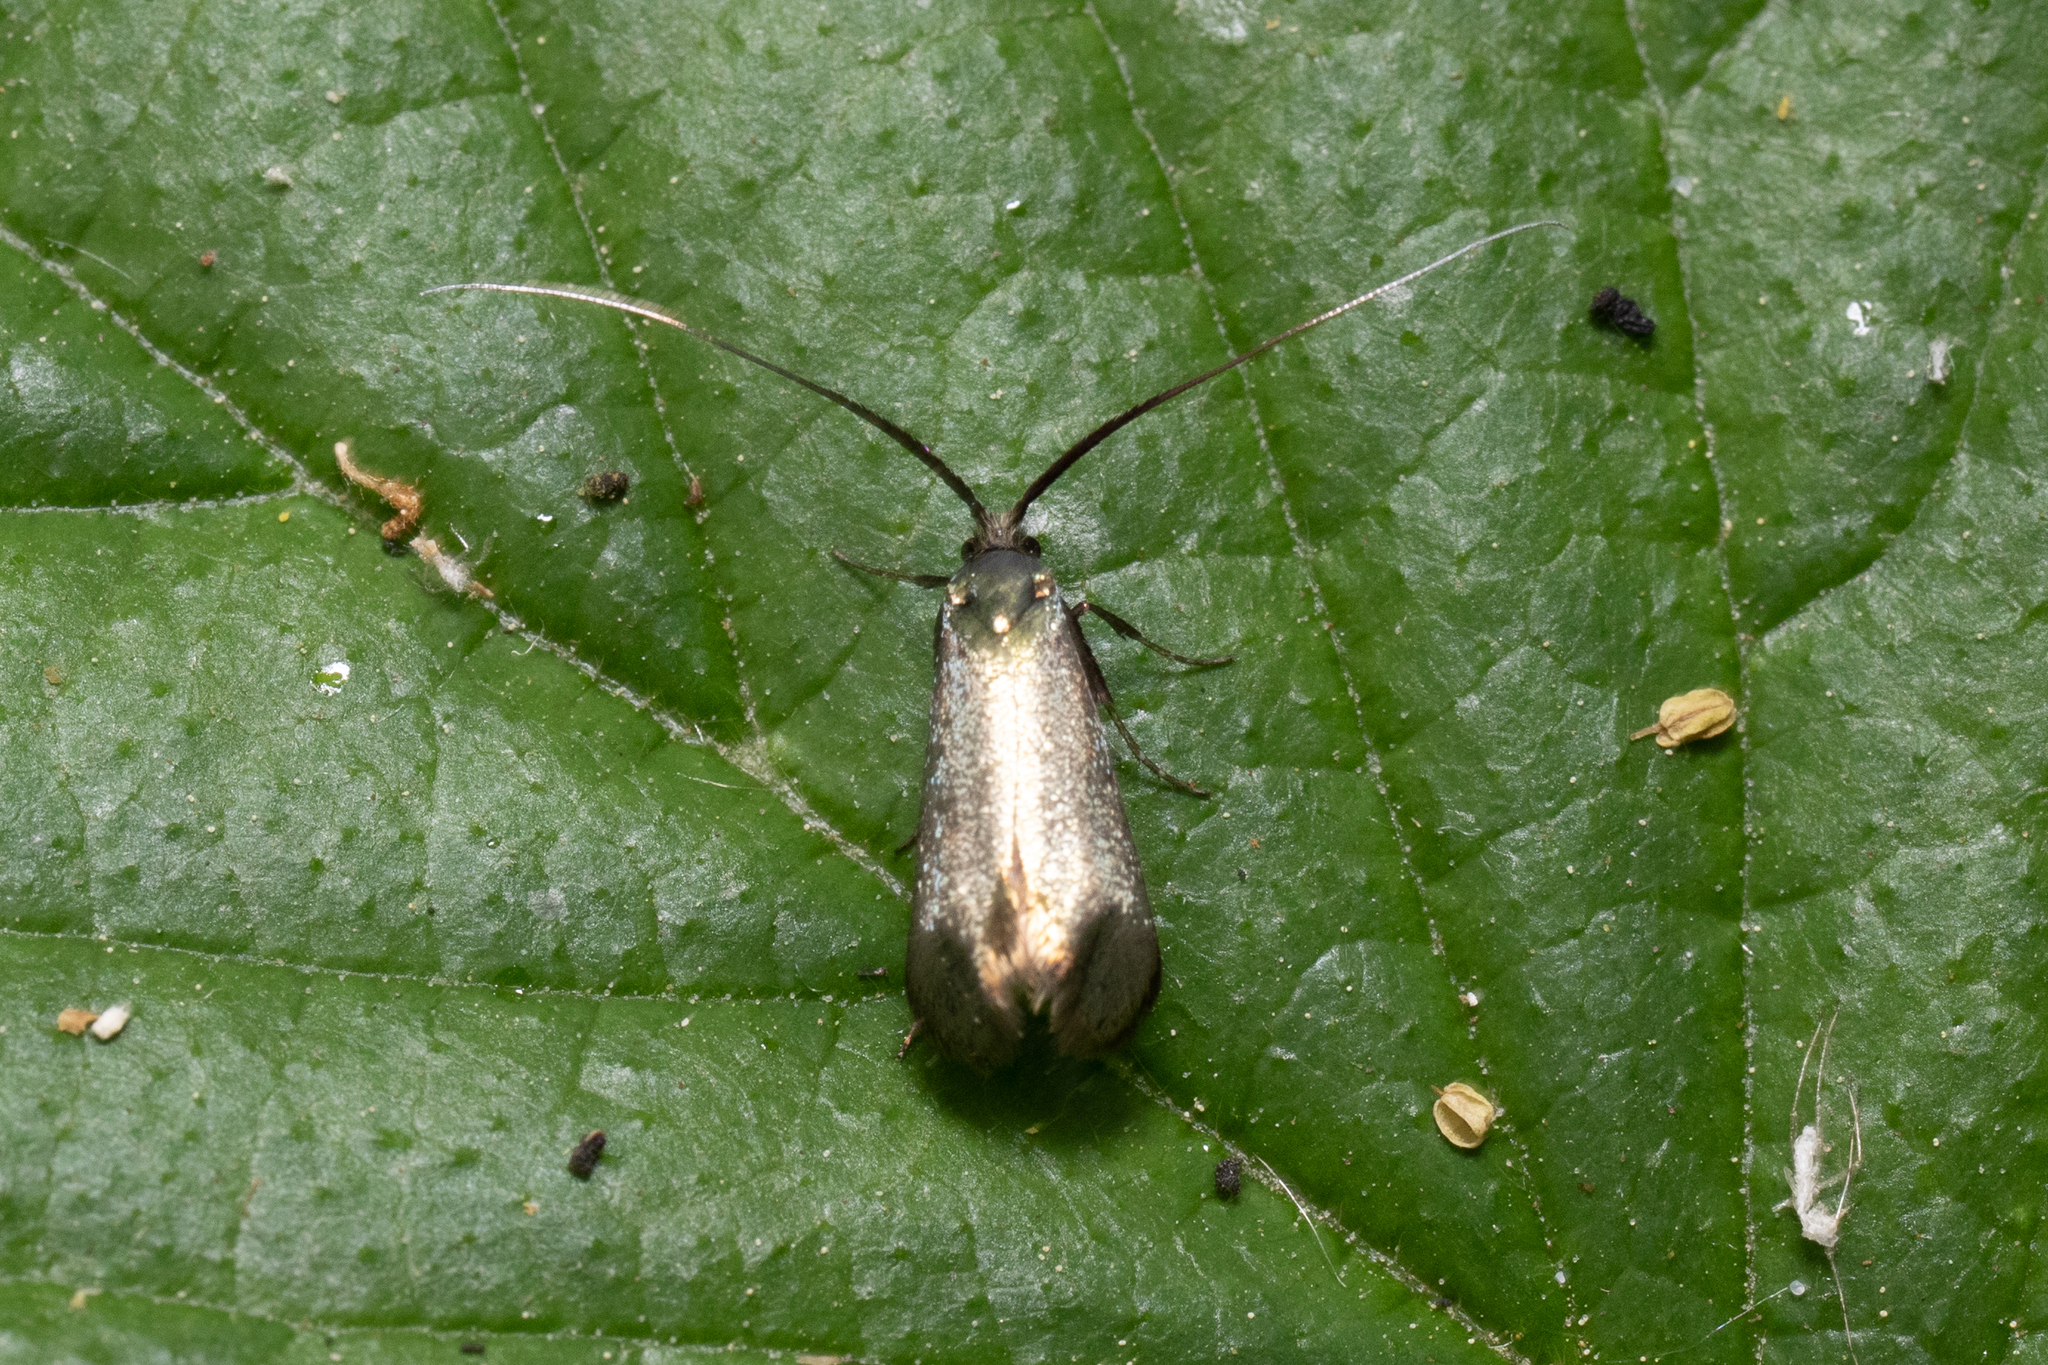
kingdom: Animalia
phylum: Arthropoda
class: Insecta
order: Lepidoptera
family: Adelidae
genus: Adela
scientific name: Adela viridella
